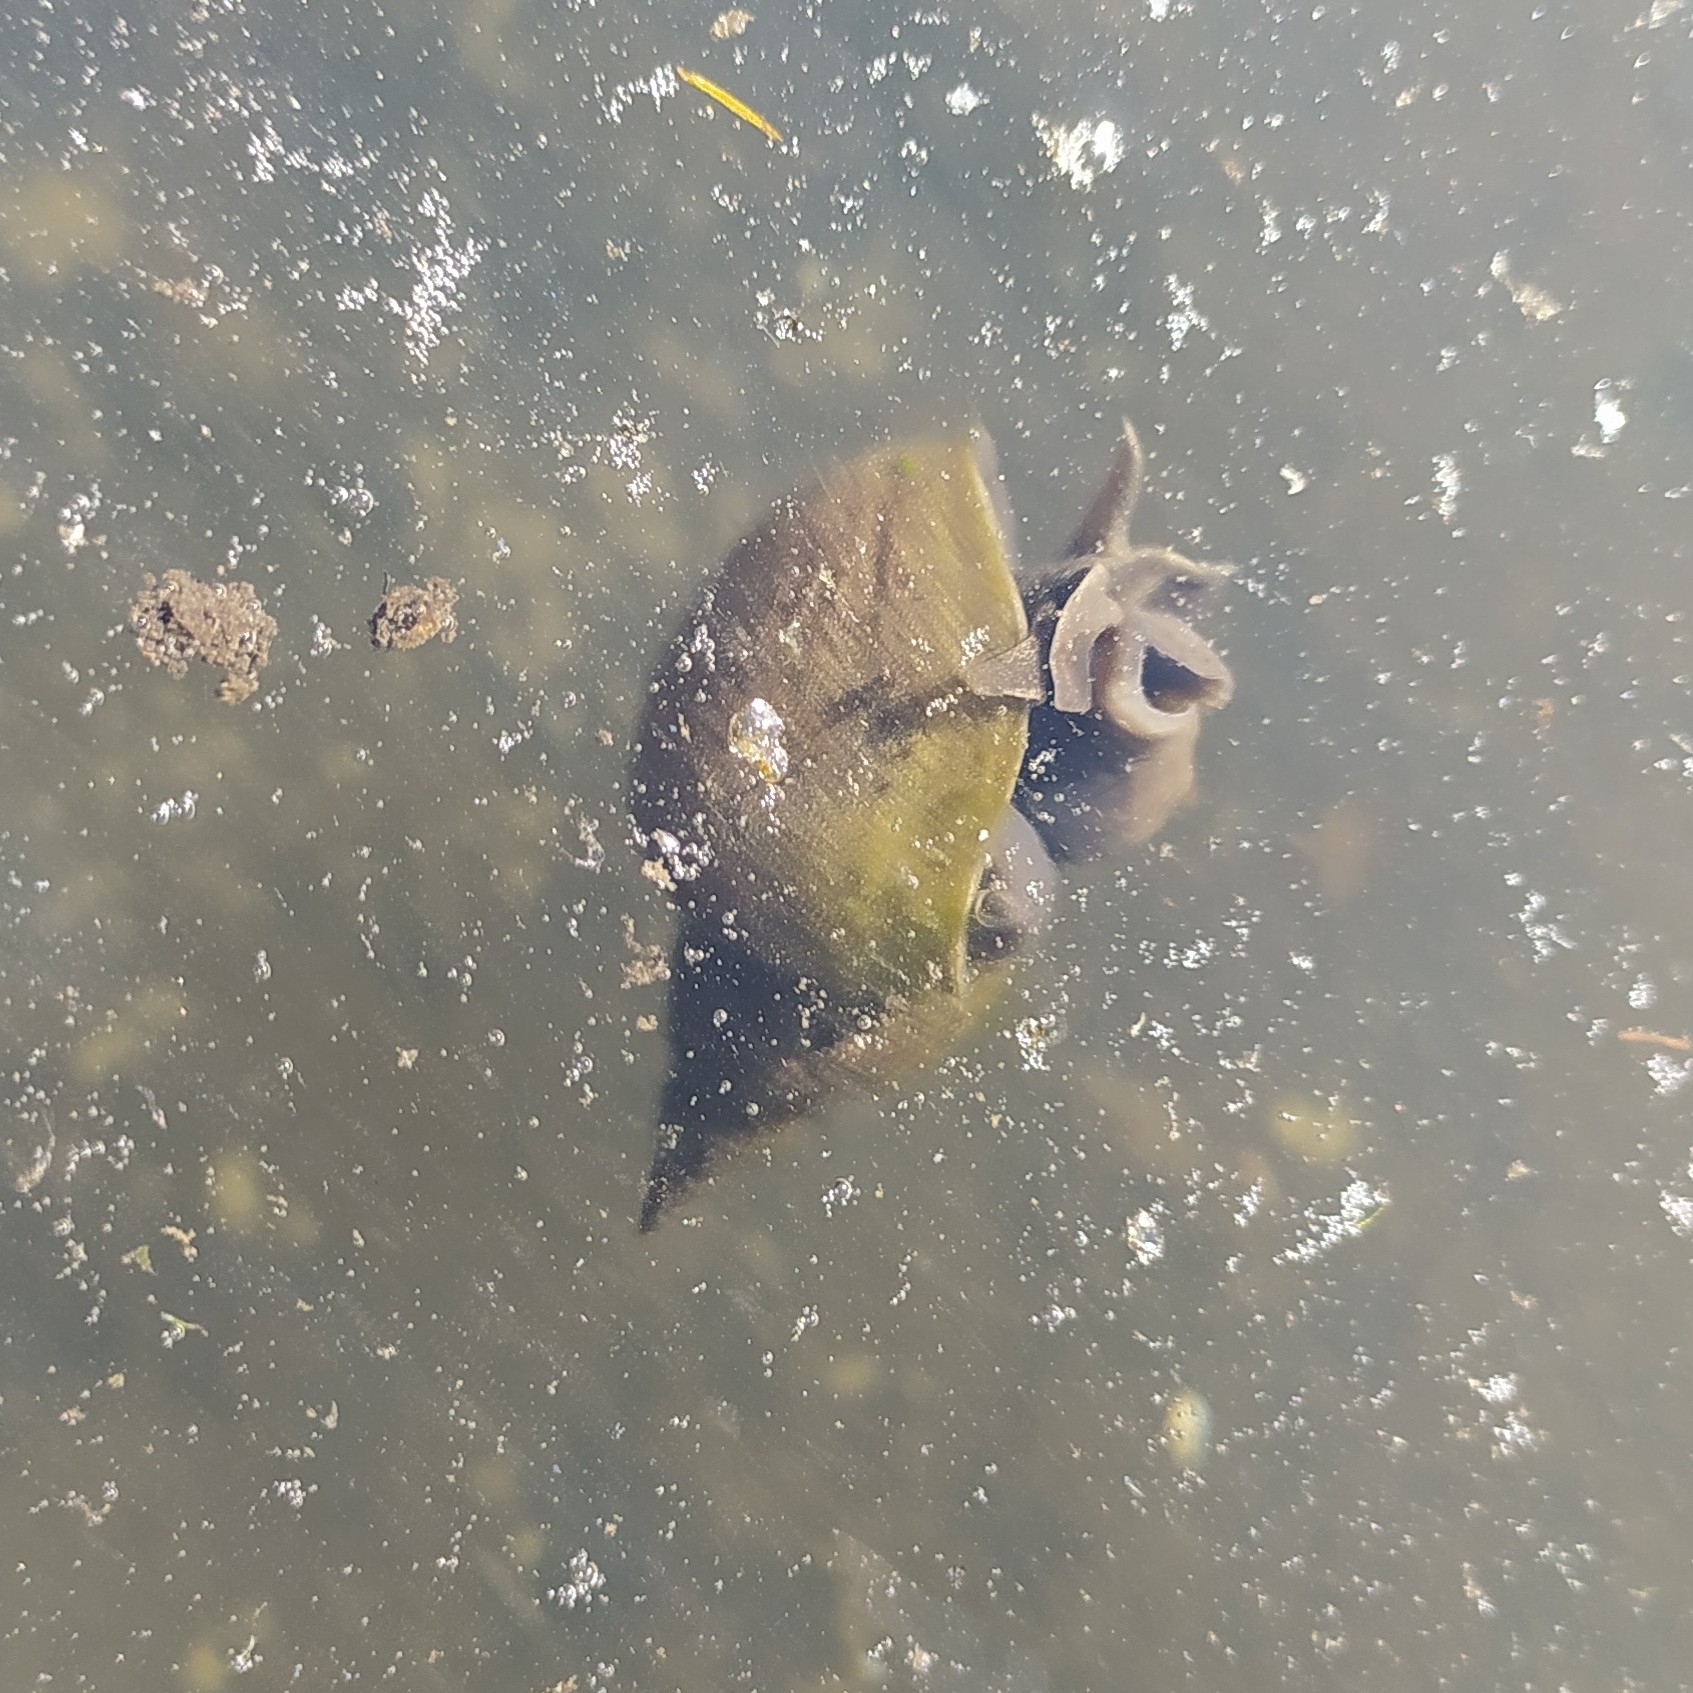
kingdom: Animalia
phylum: Mollusca
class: Gastropoda
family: Lymnaeidae
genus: Lymnaea
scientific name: Lymnaea stagnalis
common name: Great pond snail
